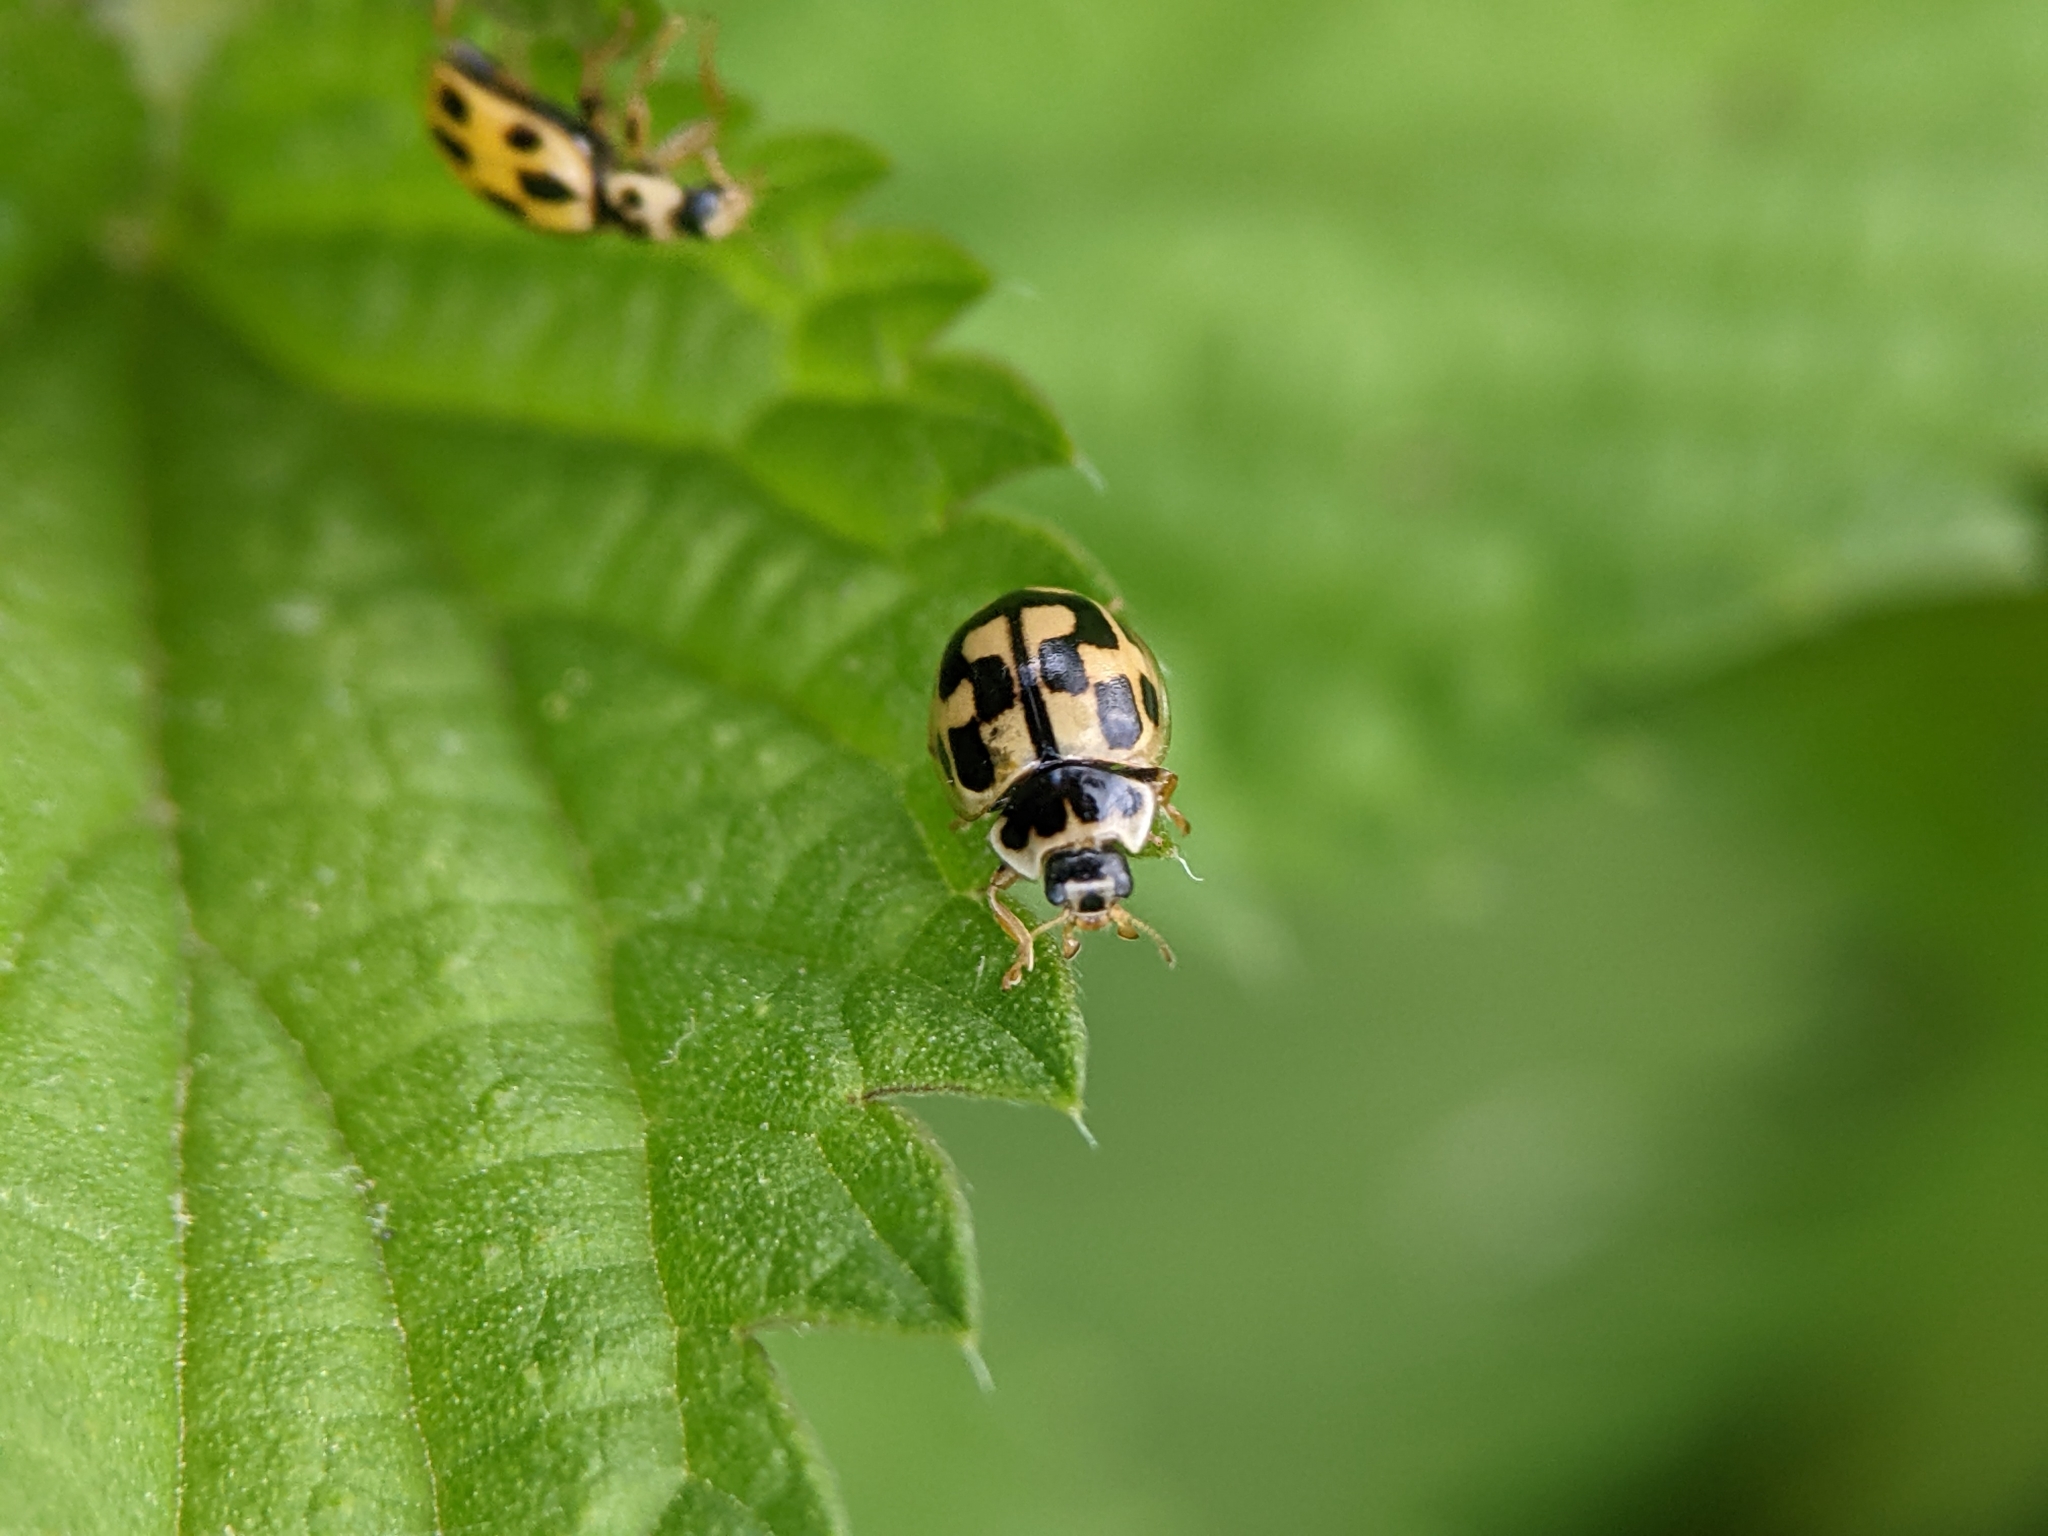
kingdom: Animalia
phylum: Arthropoda
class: Insecta
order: Coleoptera
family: Coccinellidae
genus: Propylaea
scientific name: Propylaea quatuordecimpunctata
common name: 14-spotted ladybird beetle
